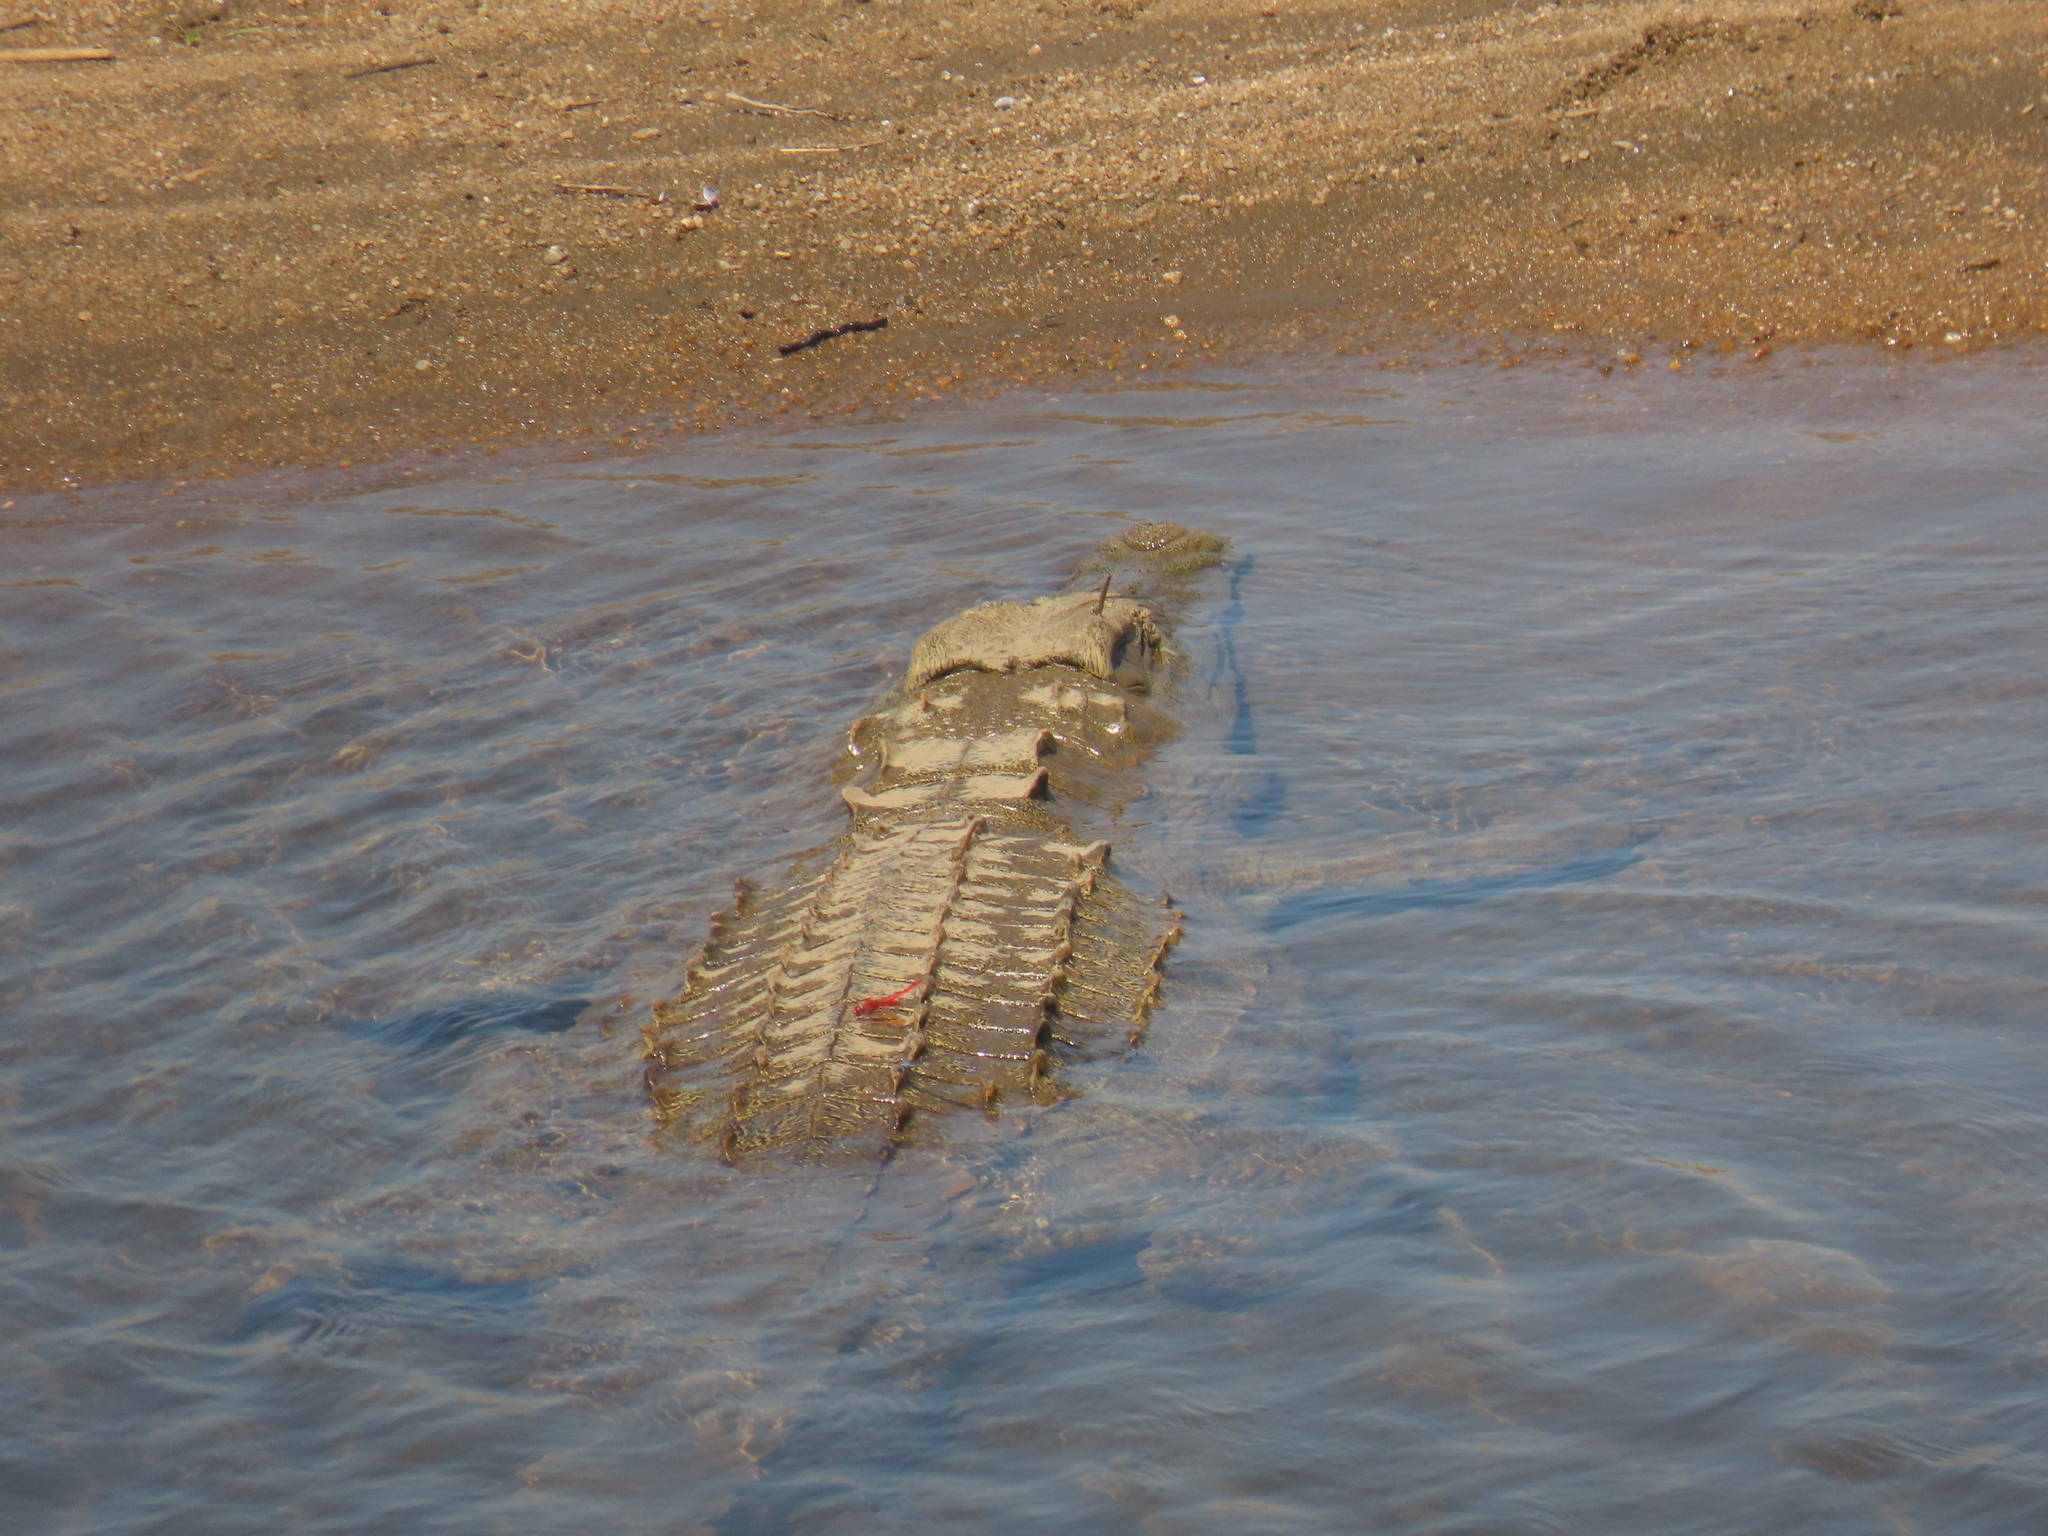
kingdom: Animalia
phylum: Chordata
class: Crocodylia
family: Crocodylidae
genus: Crocodylus
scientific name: Crocodylus niloticus
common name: Nile crocodile
